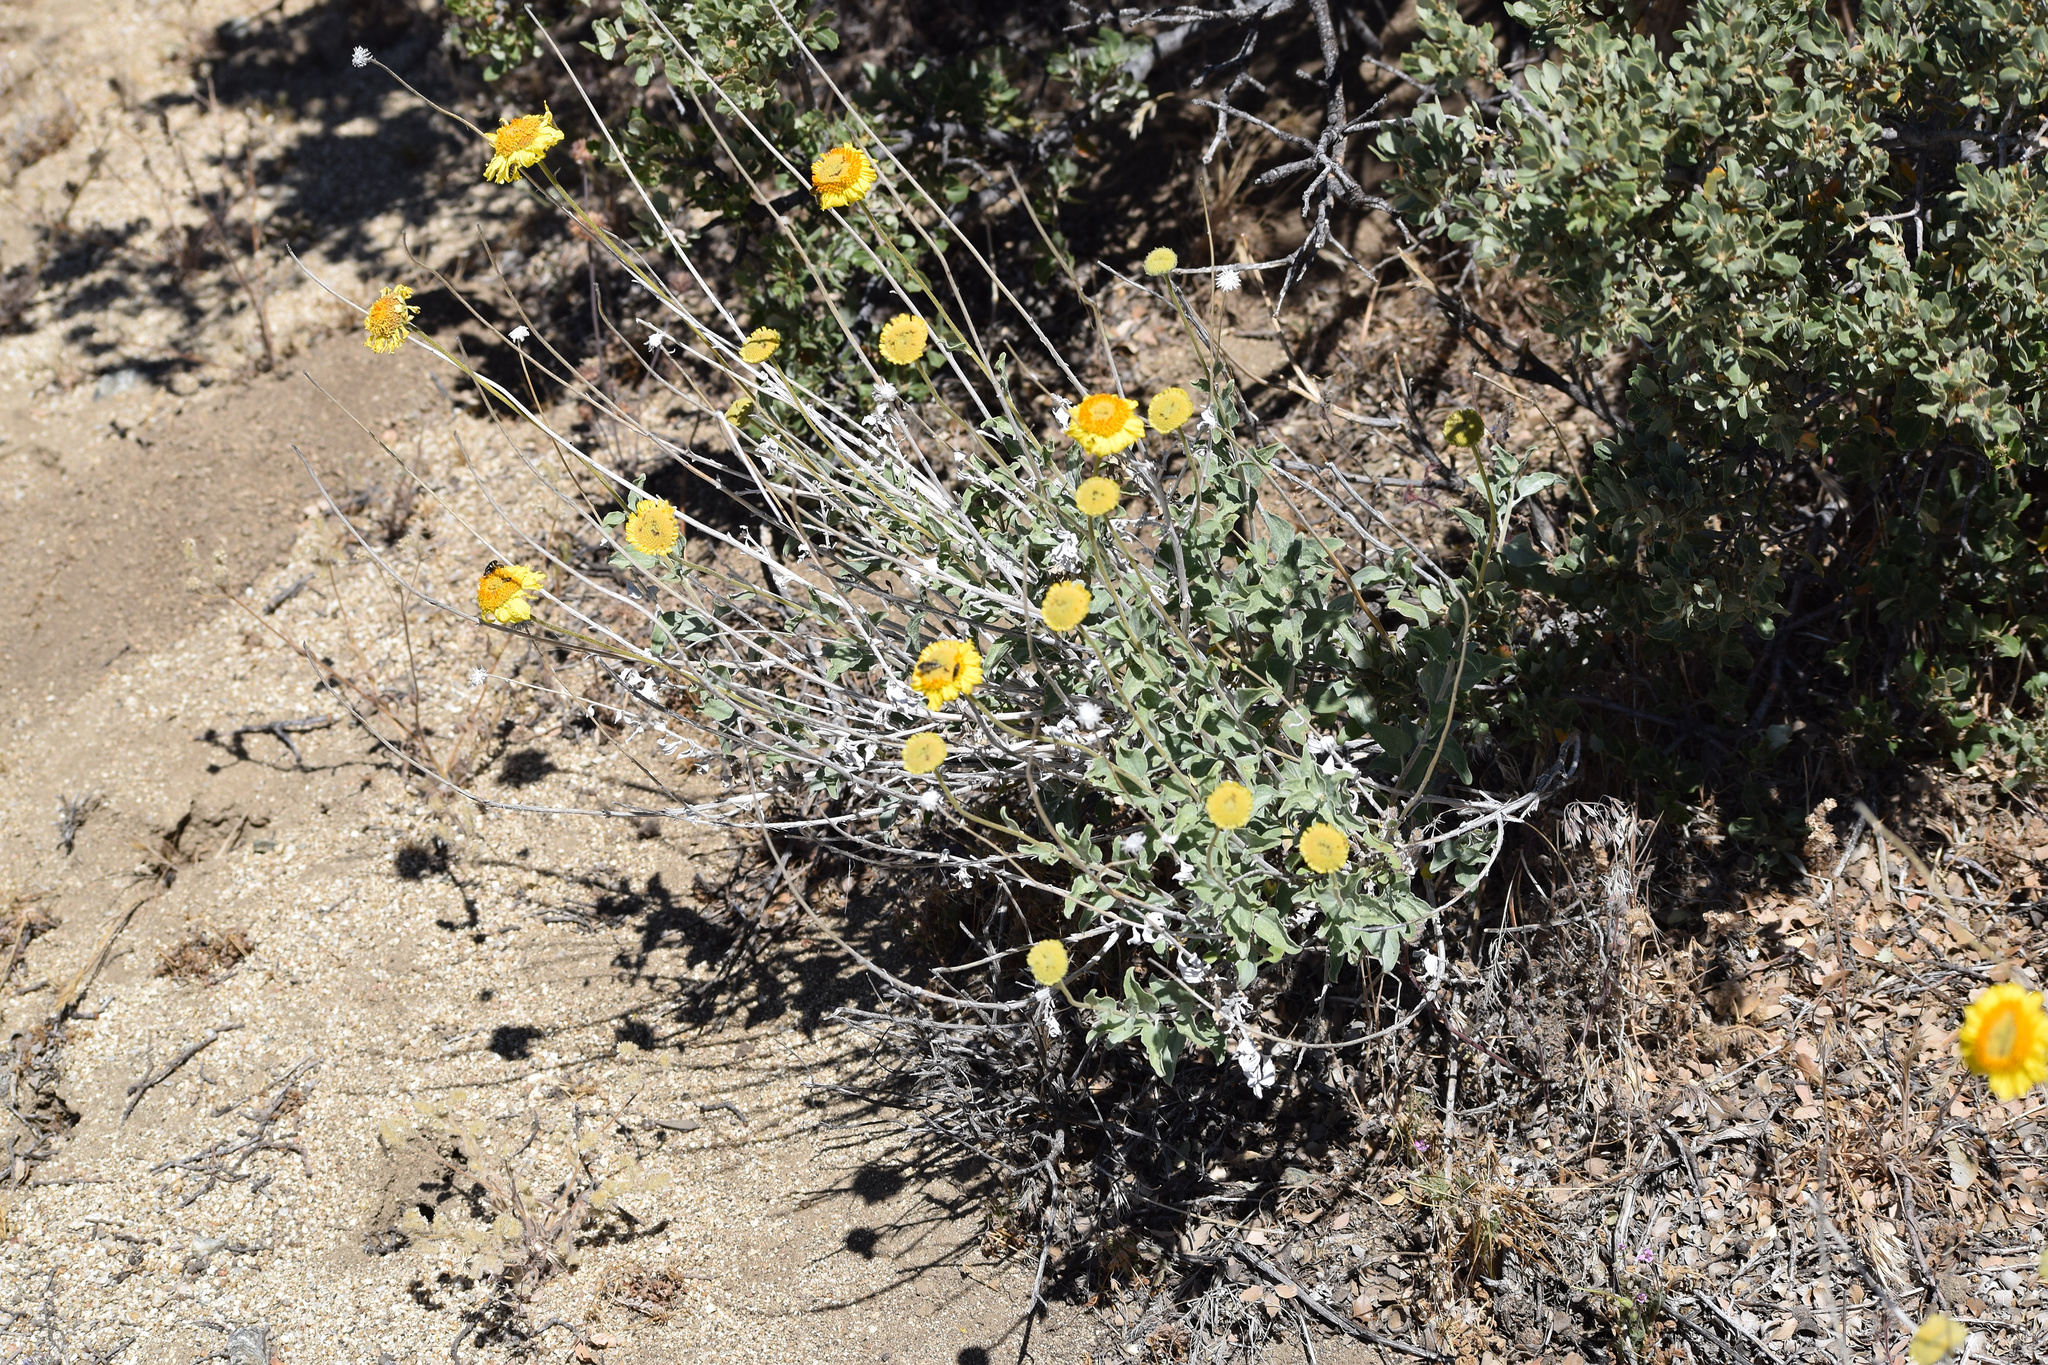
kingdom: Plantae
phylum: Tracheophyta
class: Magnoliopsida
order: Asterales
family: Asteraceae
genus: Encelia
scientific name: Encelia actoni
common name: Acton encelia
